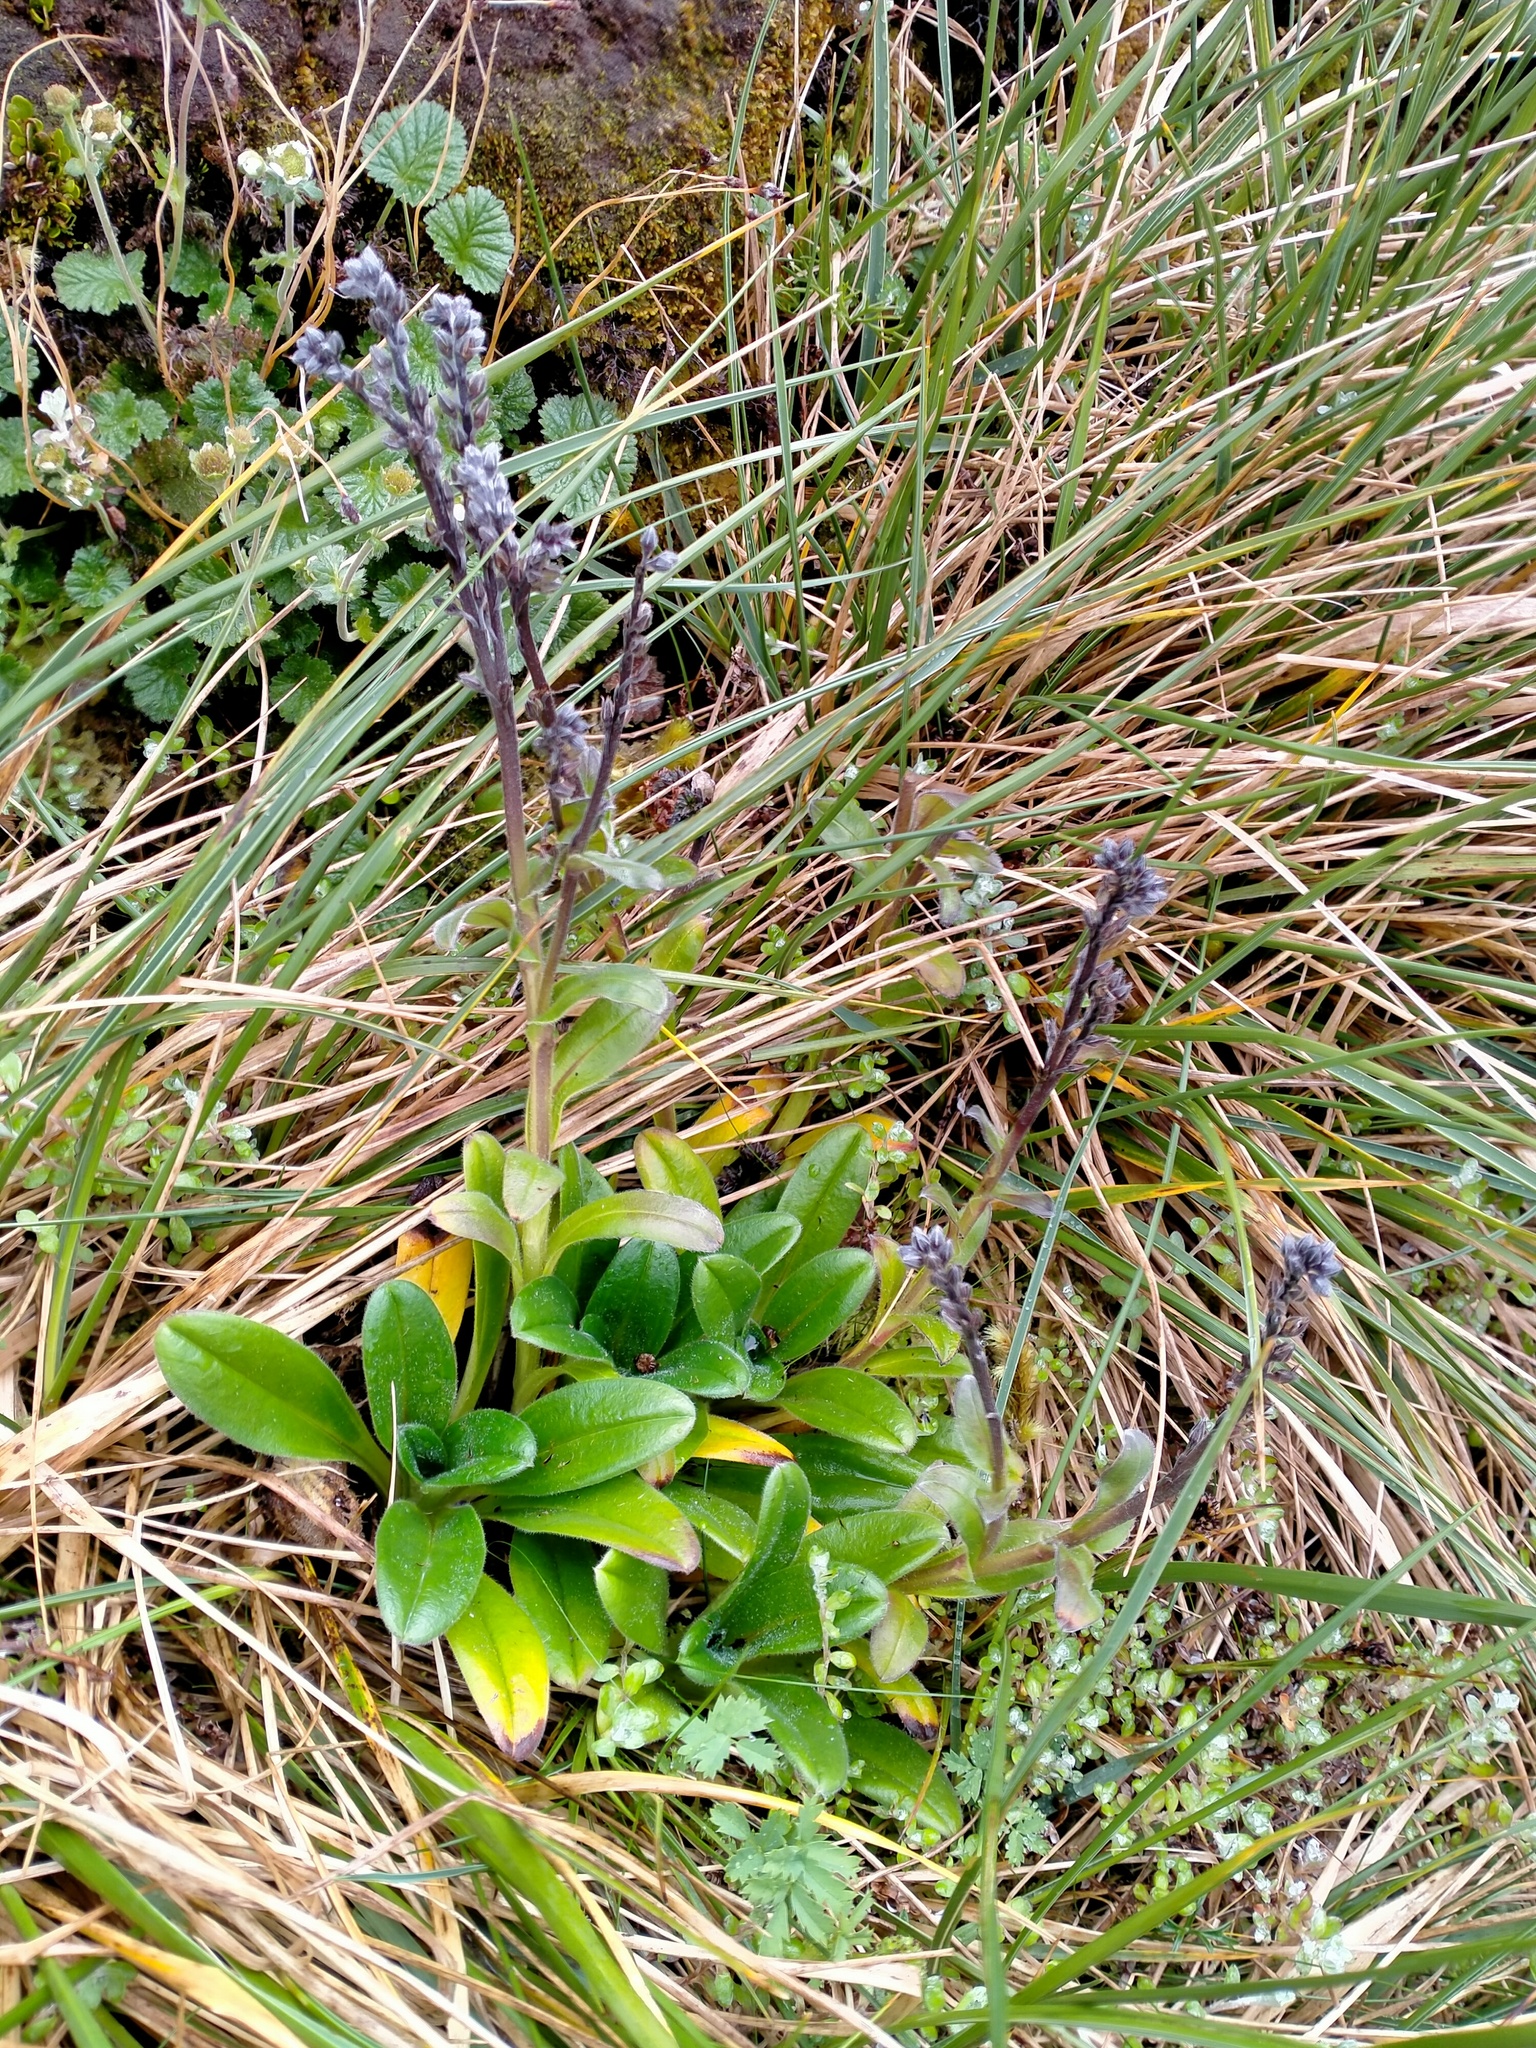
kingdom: Plantae
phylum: Tracheophyta
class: Magnoliopsida
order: Boraginales
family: Boraginaceae
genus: Myosotis
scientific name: Myosotis capitata
